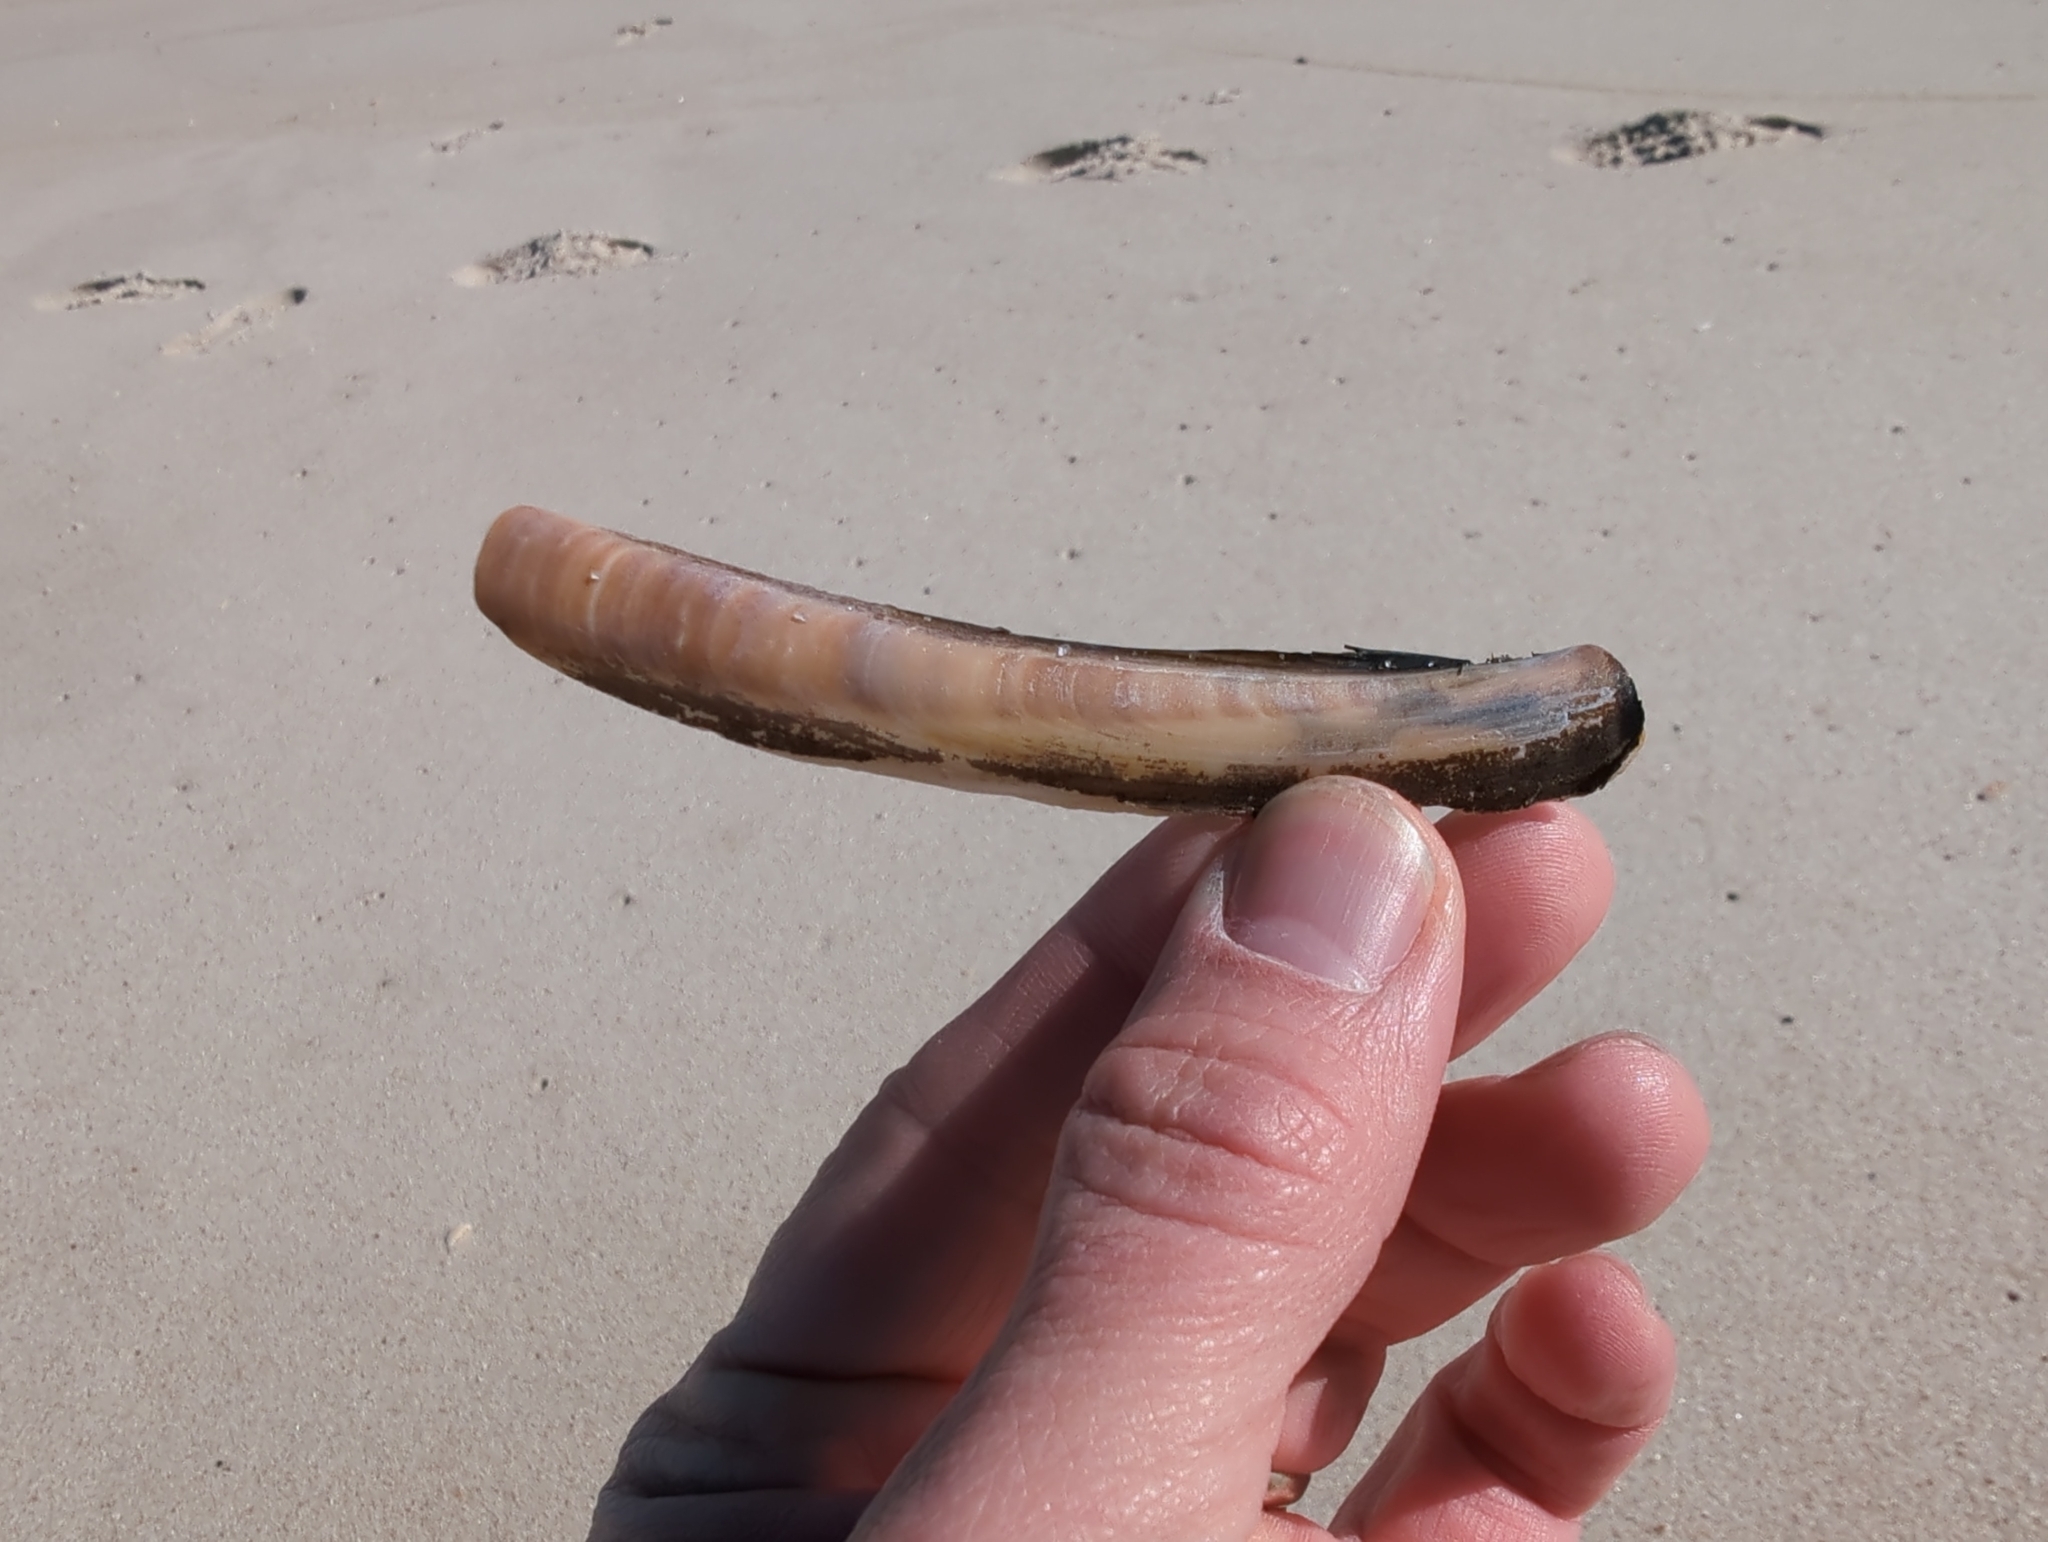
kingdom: Animalia
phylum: Mollusca
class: Bivalvia
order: Adapedonta
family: Pharidae
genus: Ensis
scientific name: Ensis leei
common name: American jack knife clam
